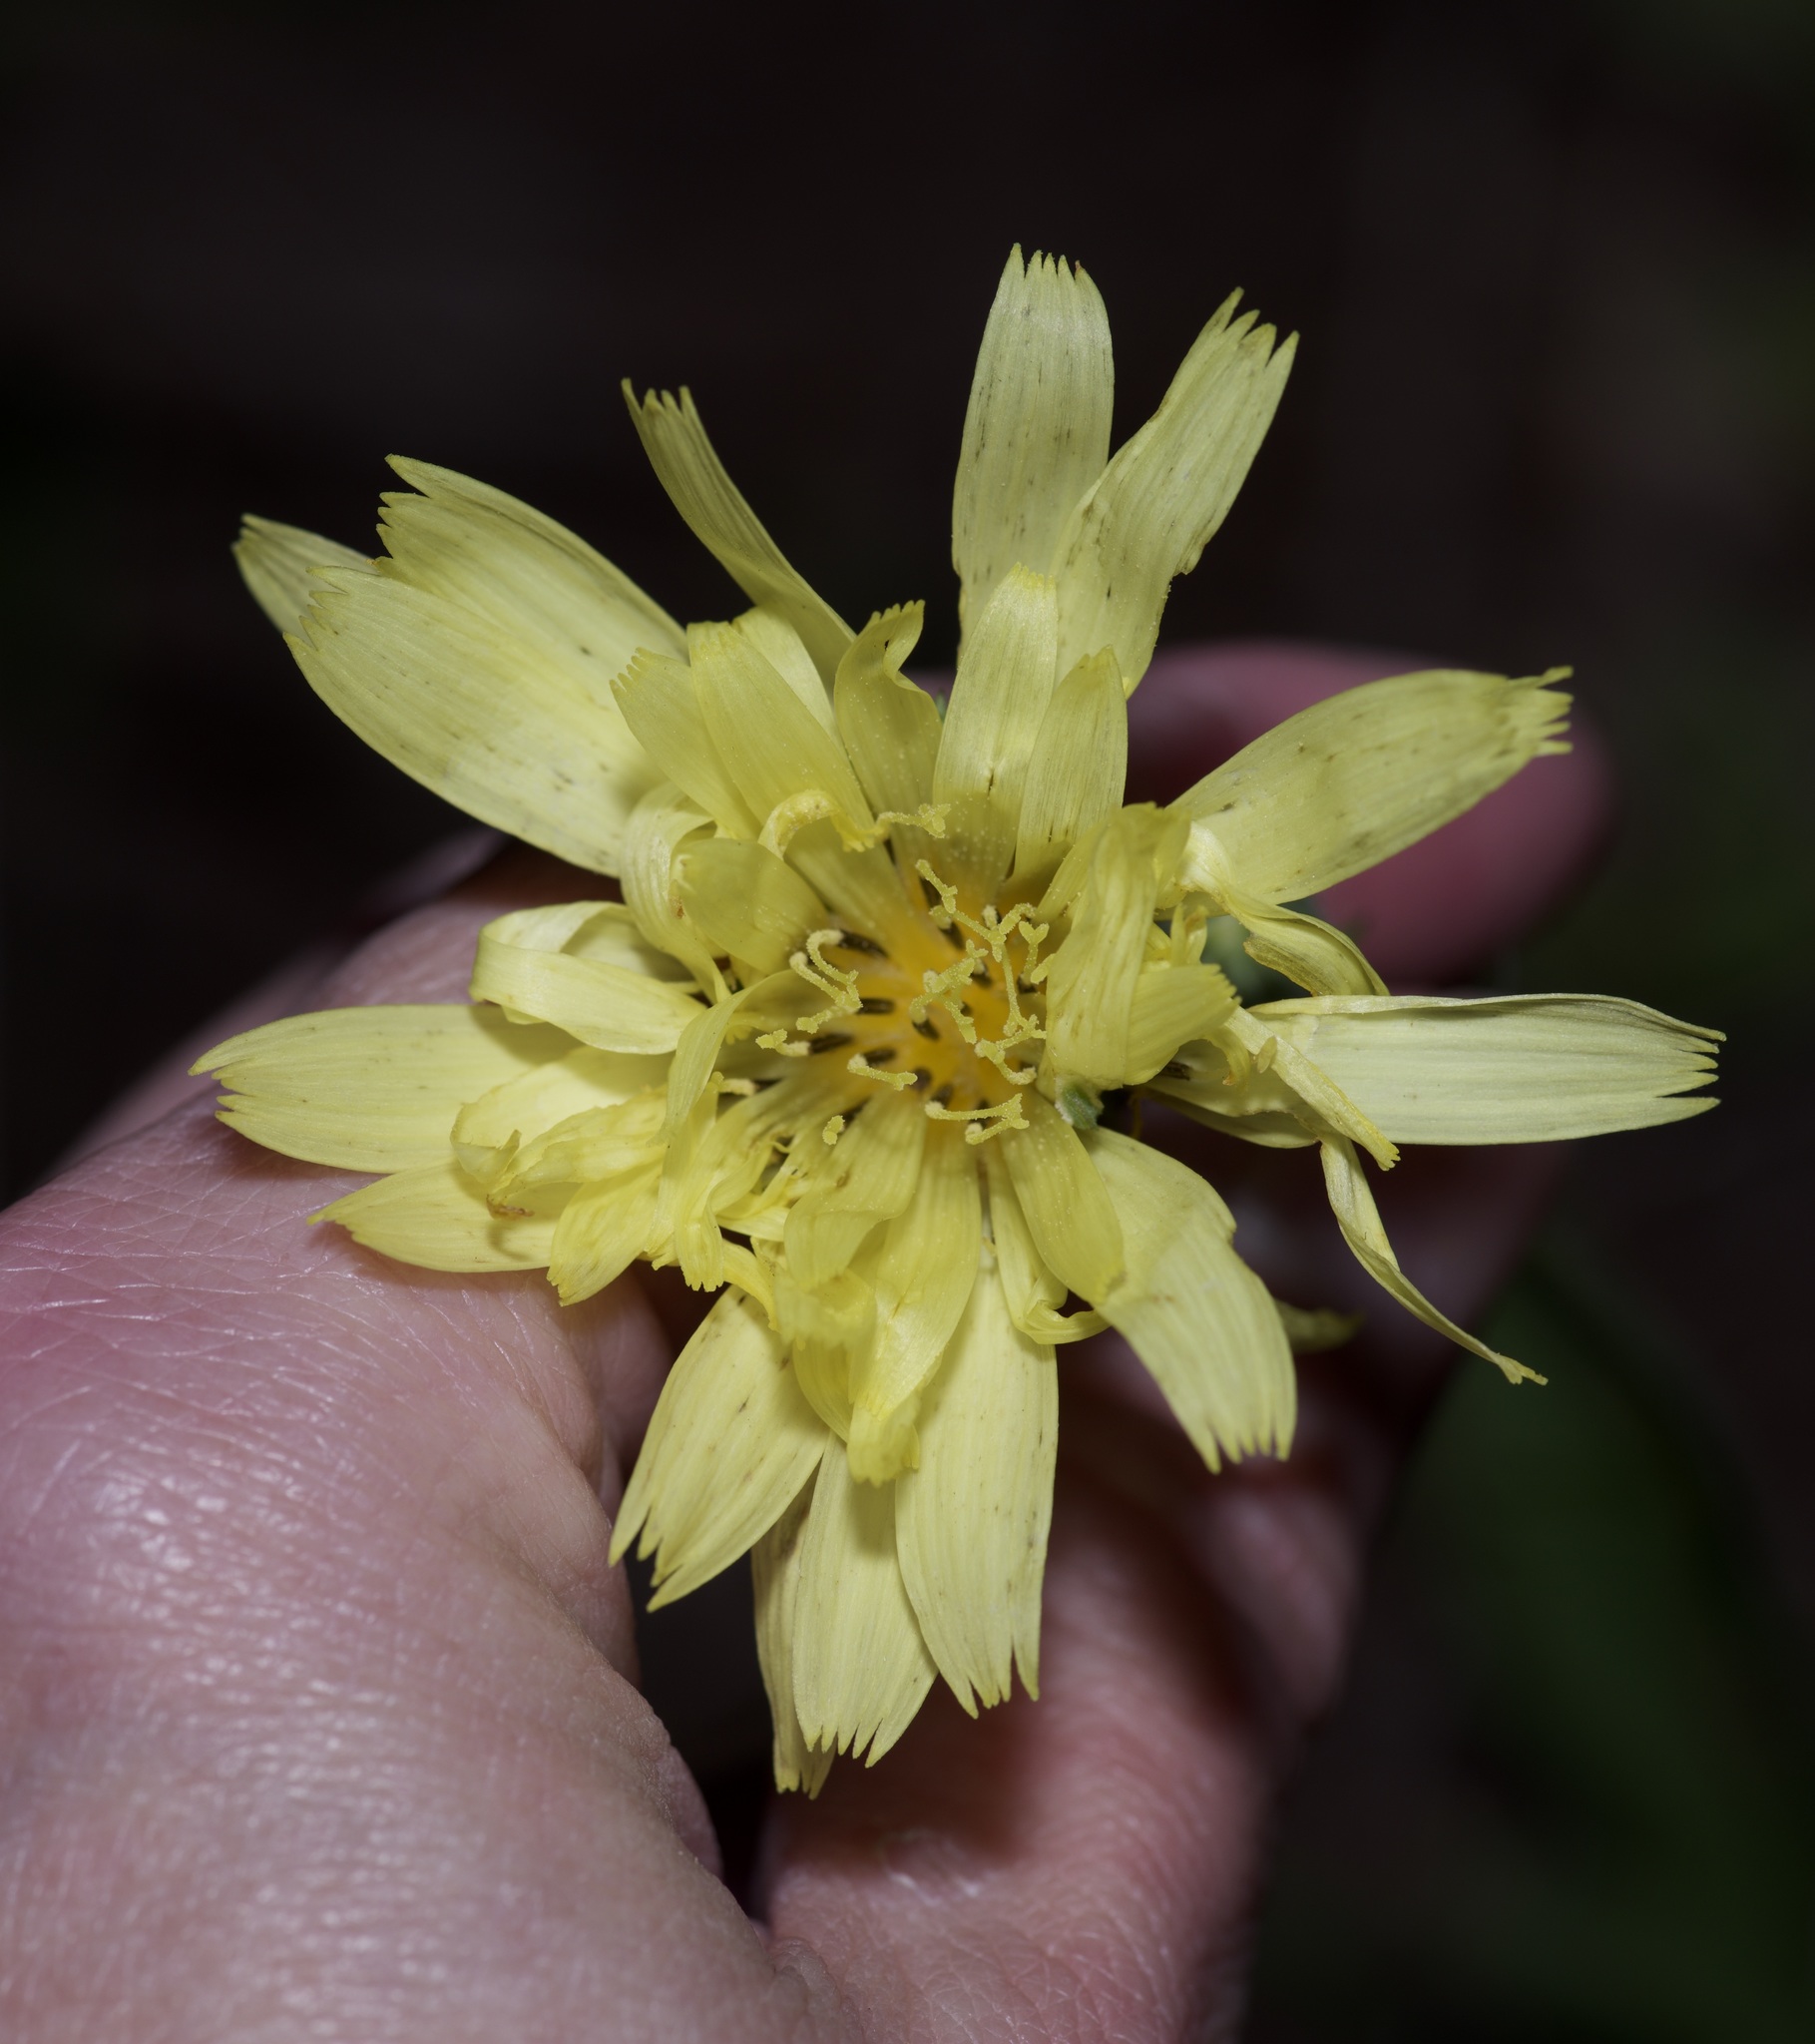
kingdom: Plantae
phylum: Tracheophyta
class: Magnoliopsida
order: Asterales
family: Asteraceae
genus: Pyrrhopappus
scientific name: Pyrrhopappus pauciflorus
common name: Texas false dandelion
